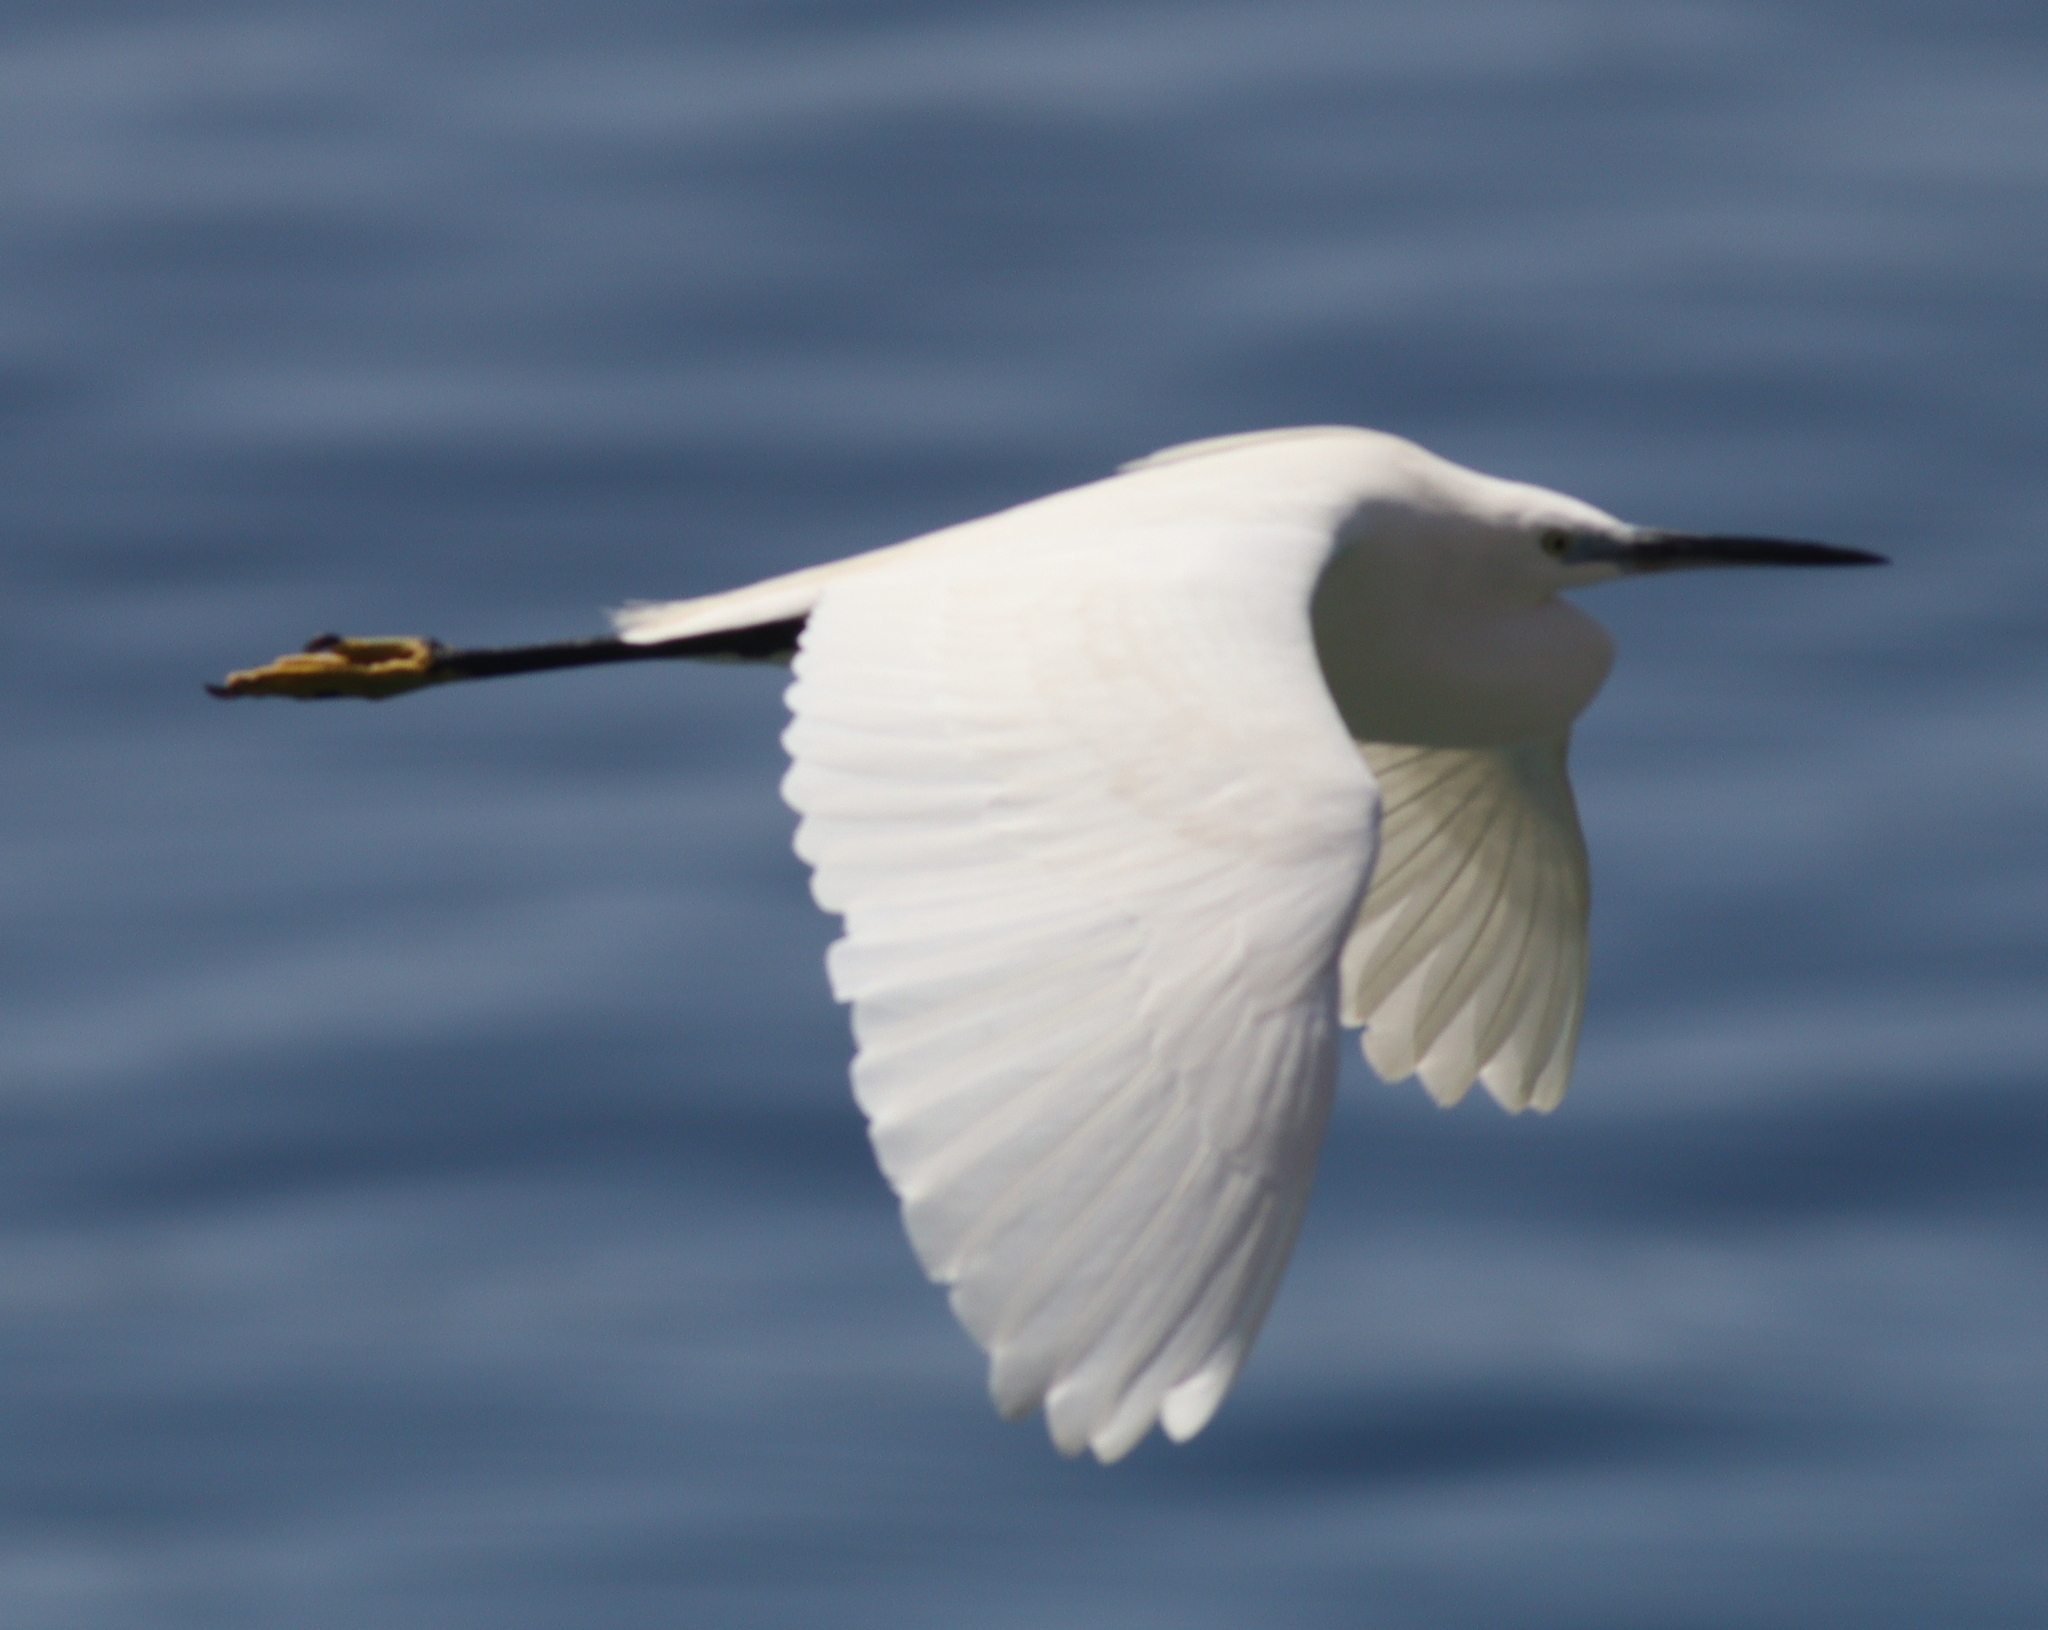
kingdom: Animalia
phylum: Chordata
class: Aves
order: Pelecaniformes
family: Ardeidae
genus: Egretta
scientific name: Egretta garzetta
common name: Little egret
